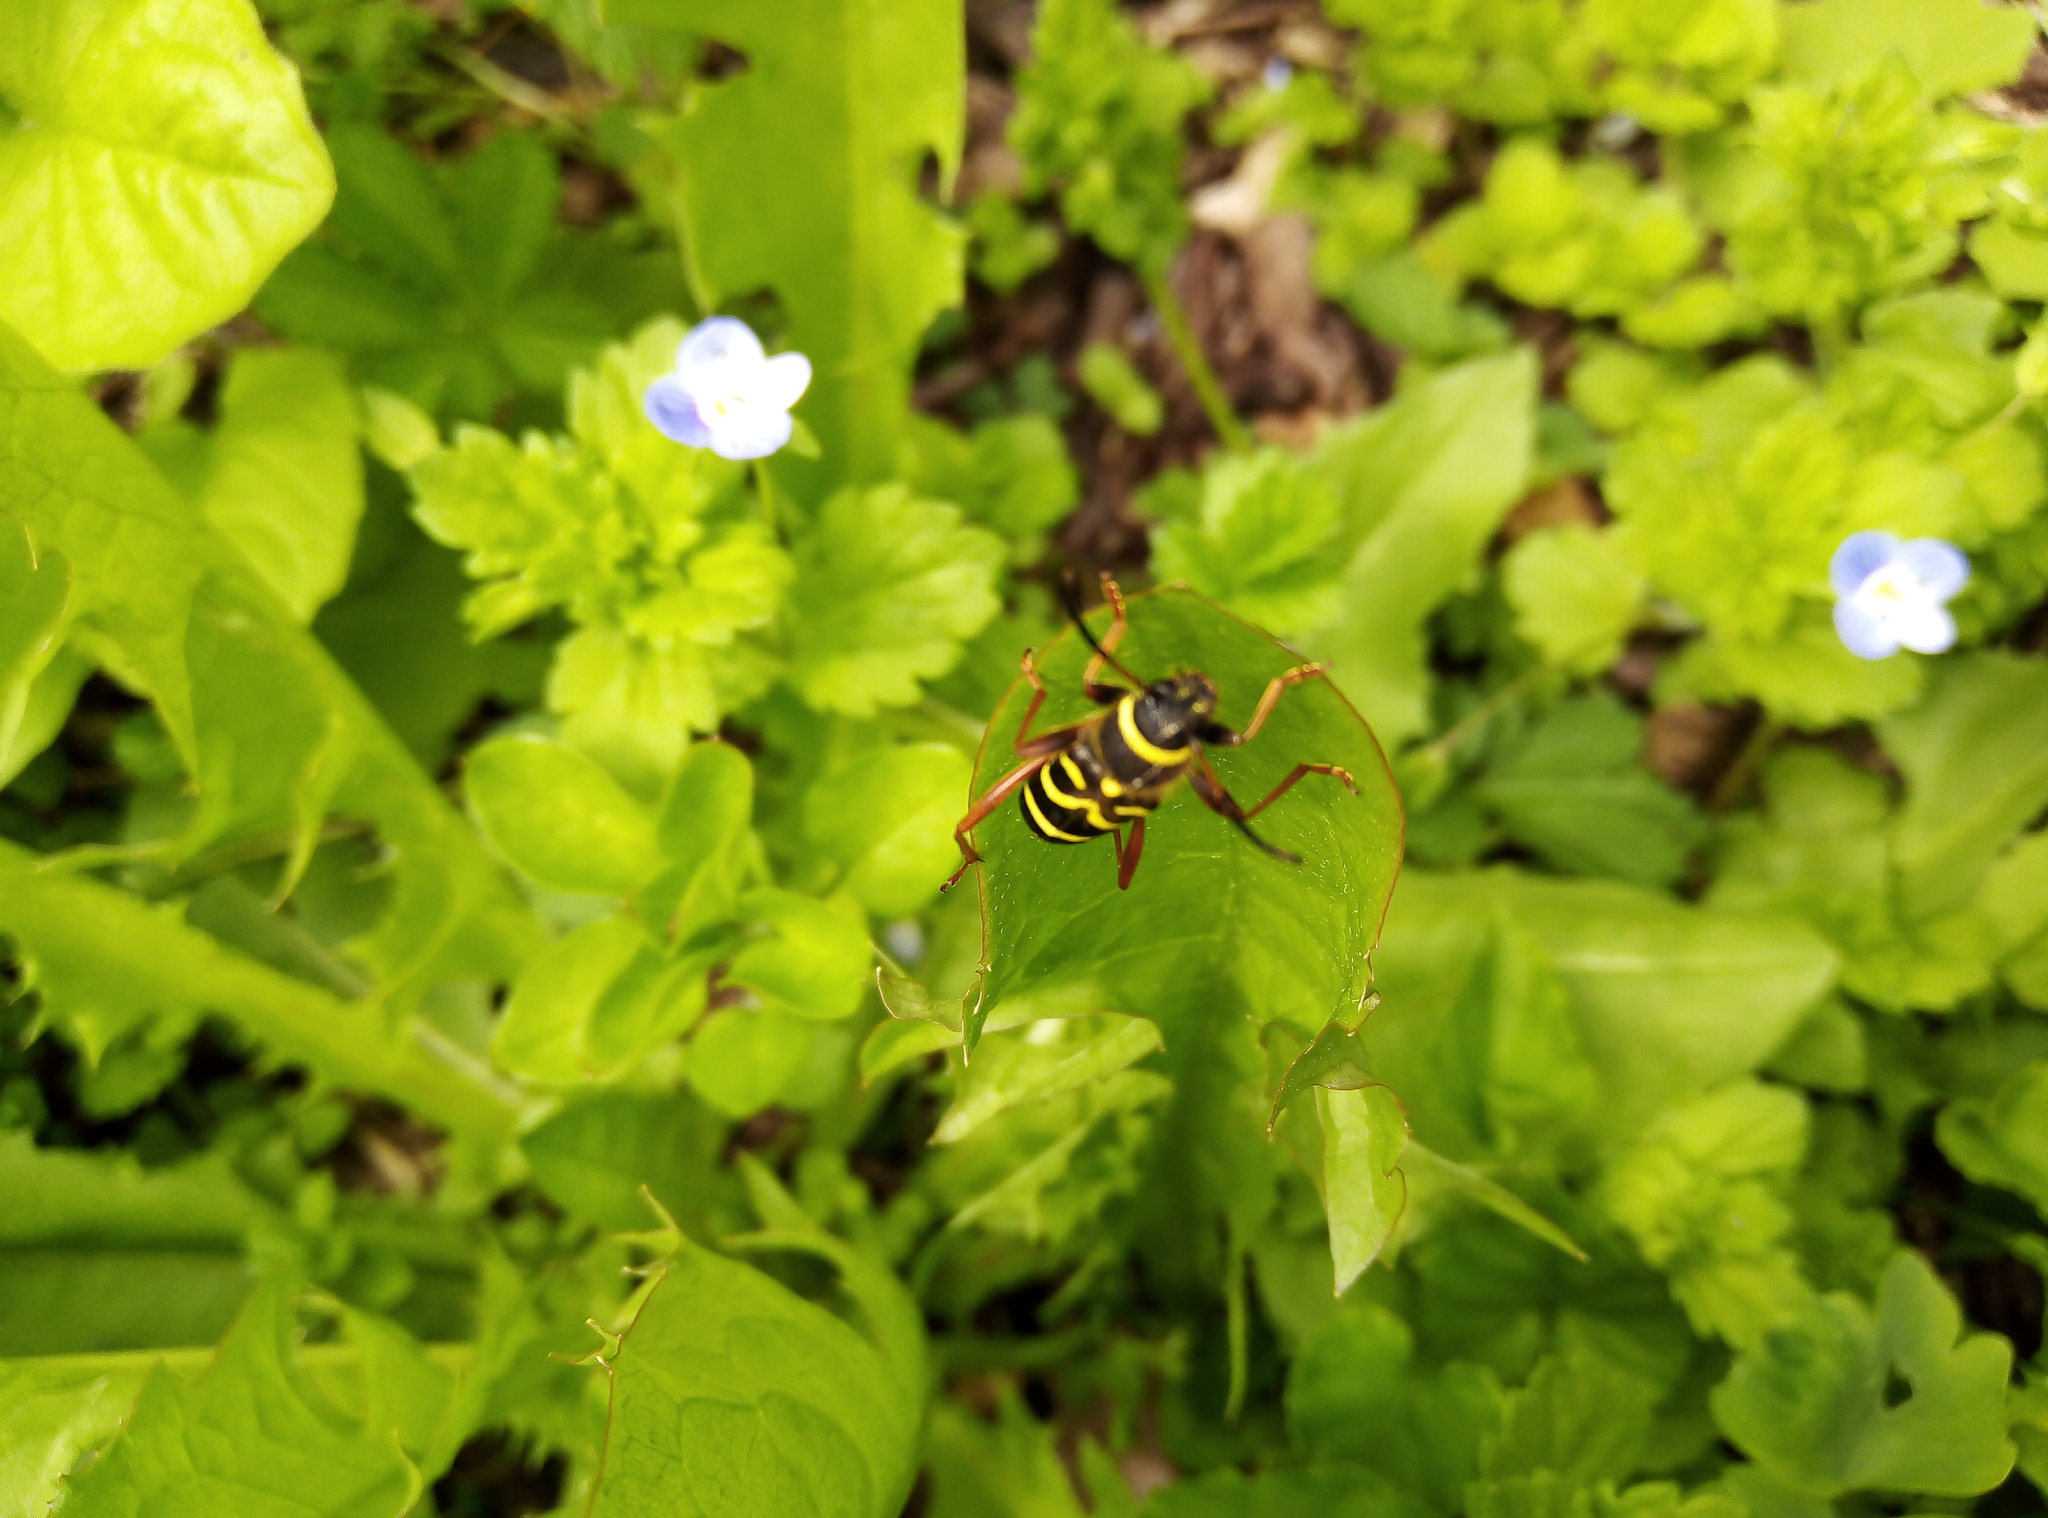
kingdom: Animalia
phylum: Arthropoda
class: Insecta
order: Coleoptera
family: Cerambycidae
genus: Clytus
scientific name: Clytus arietis
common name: Wasp beetle
